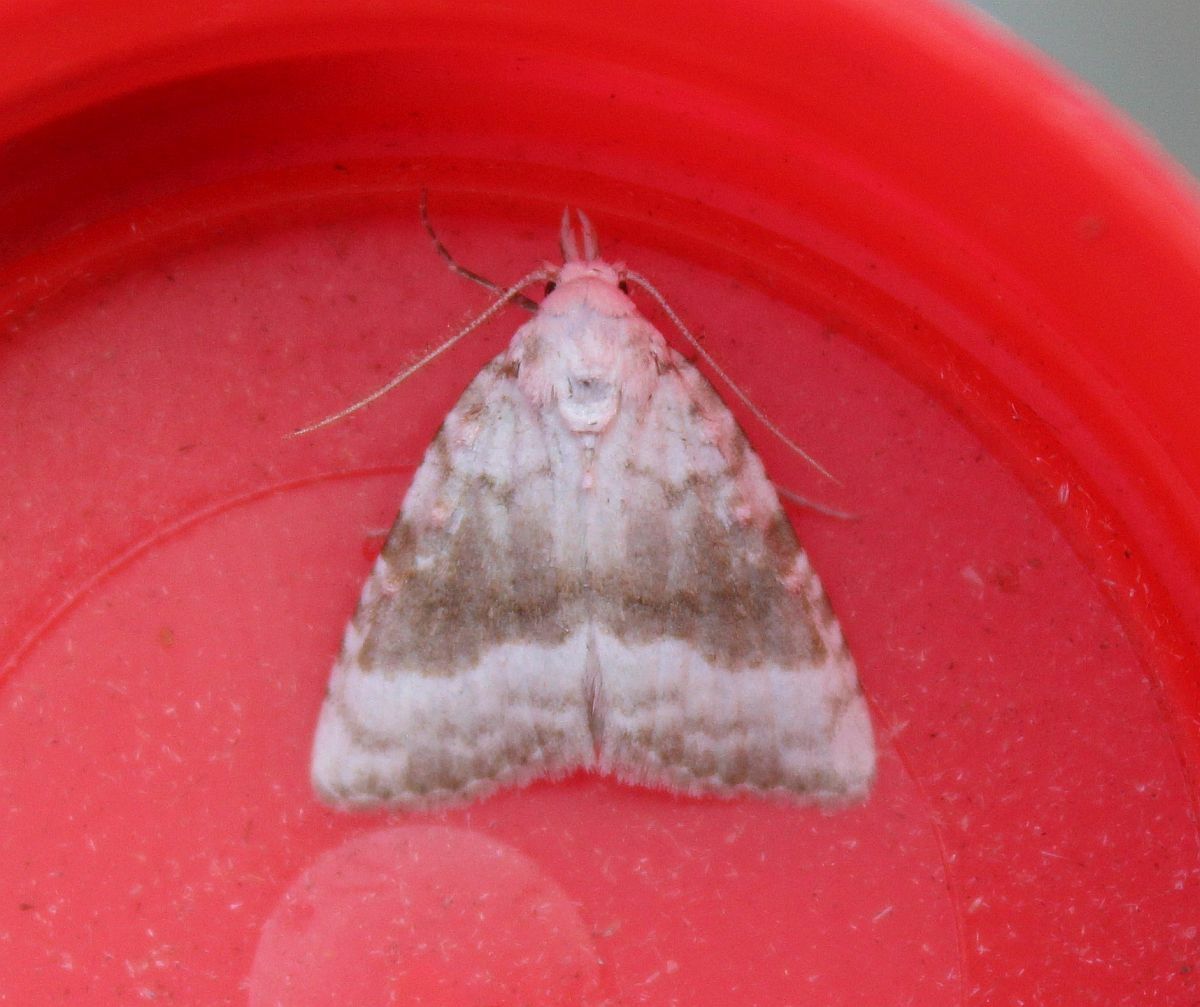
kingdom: Animalia
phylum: Arthropoda
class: Insecta
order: Lepidoptera
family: Nolidae
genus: Meganola
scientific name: Meganola albula
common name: Kent black arches
